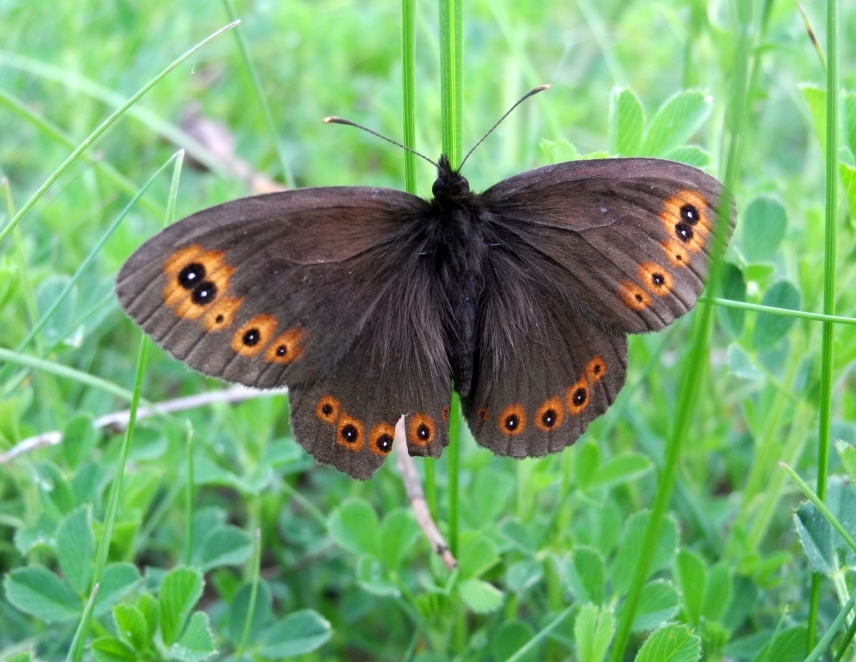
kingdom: Animalia
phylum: Arthropoda
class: Insecta
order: Lepidoptera
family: Nymphalidae
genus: Erebia
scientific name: Erebia medusa
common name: Woodland ringlet
